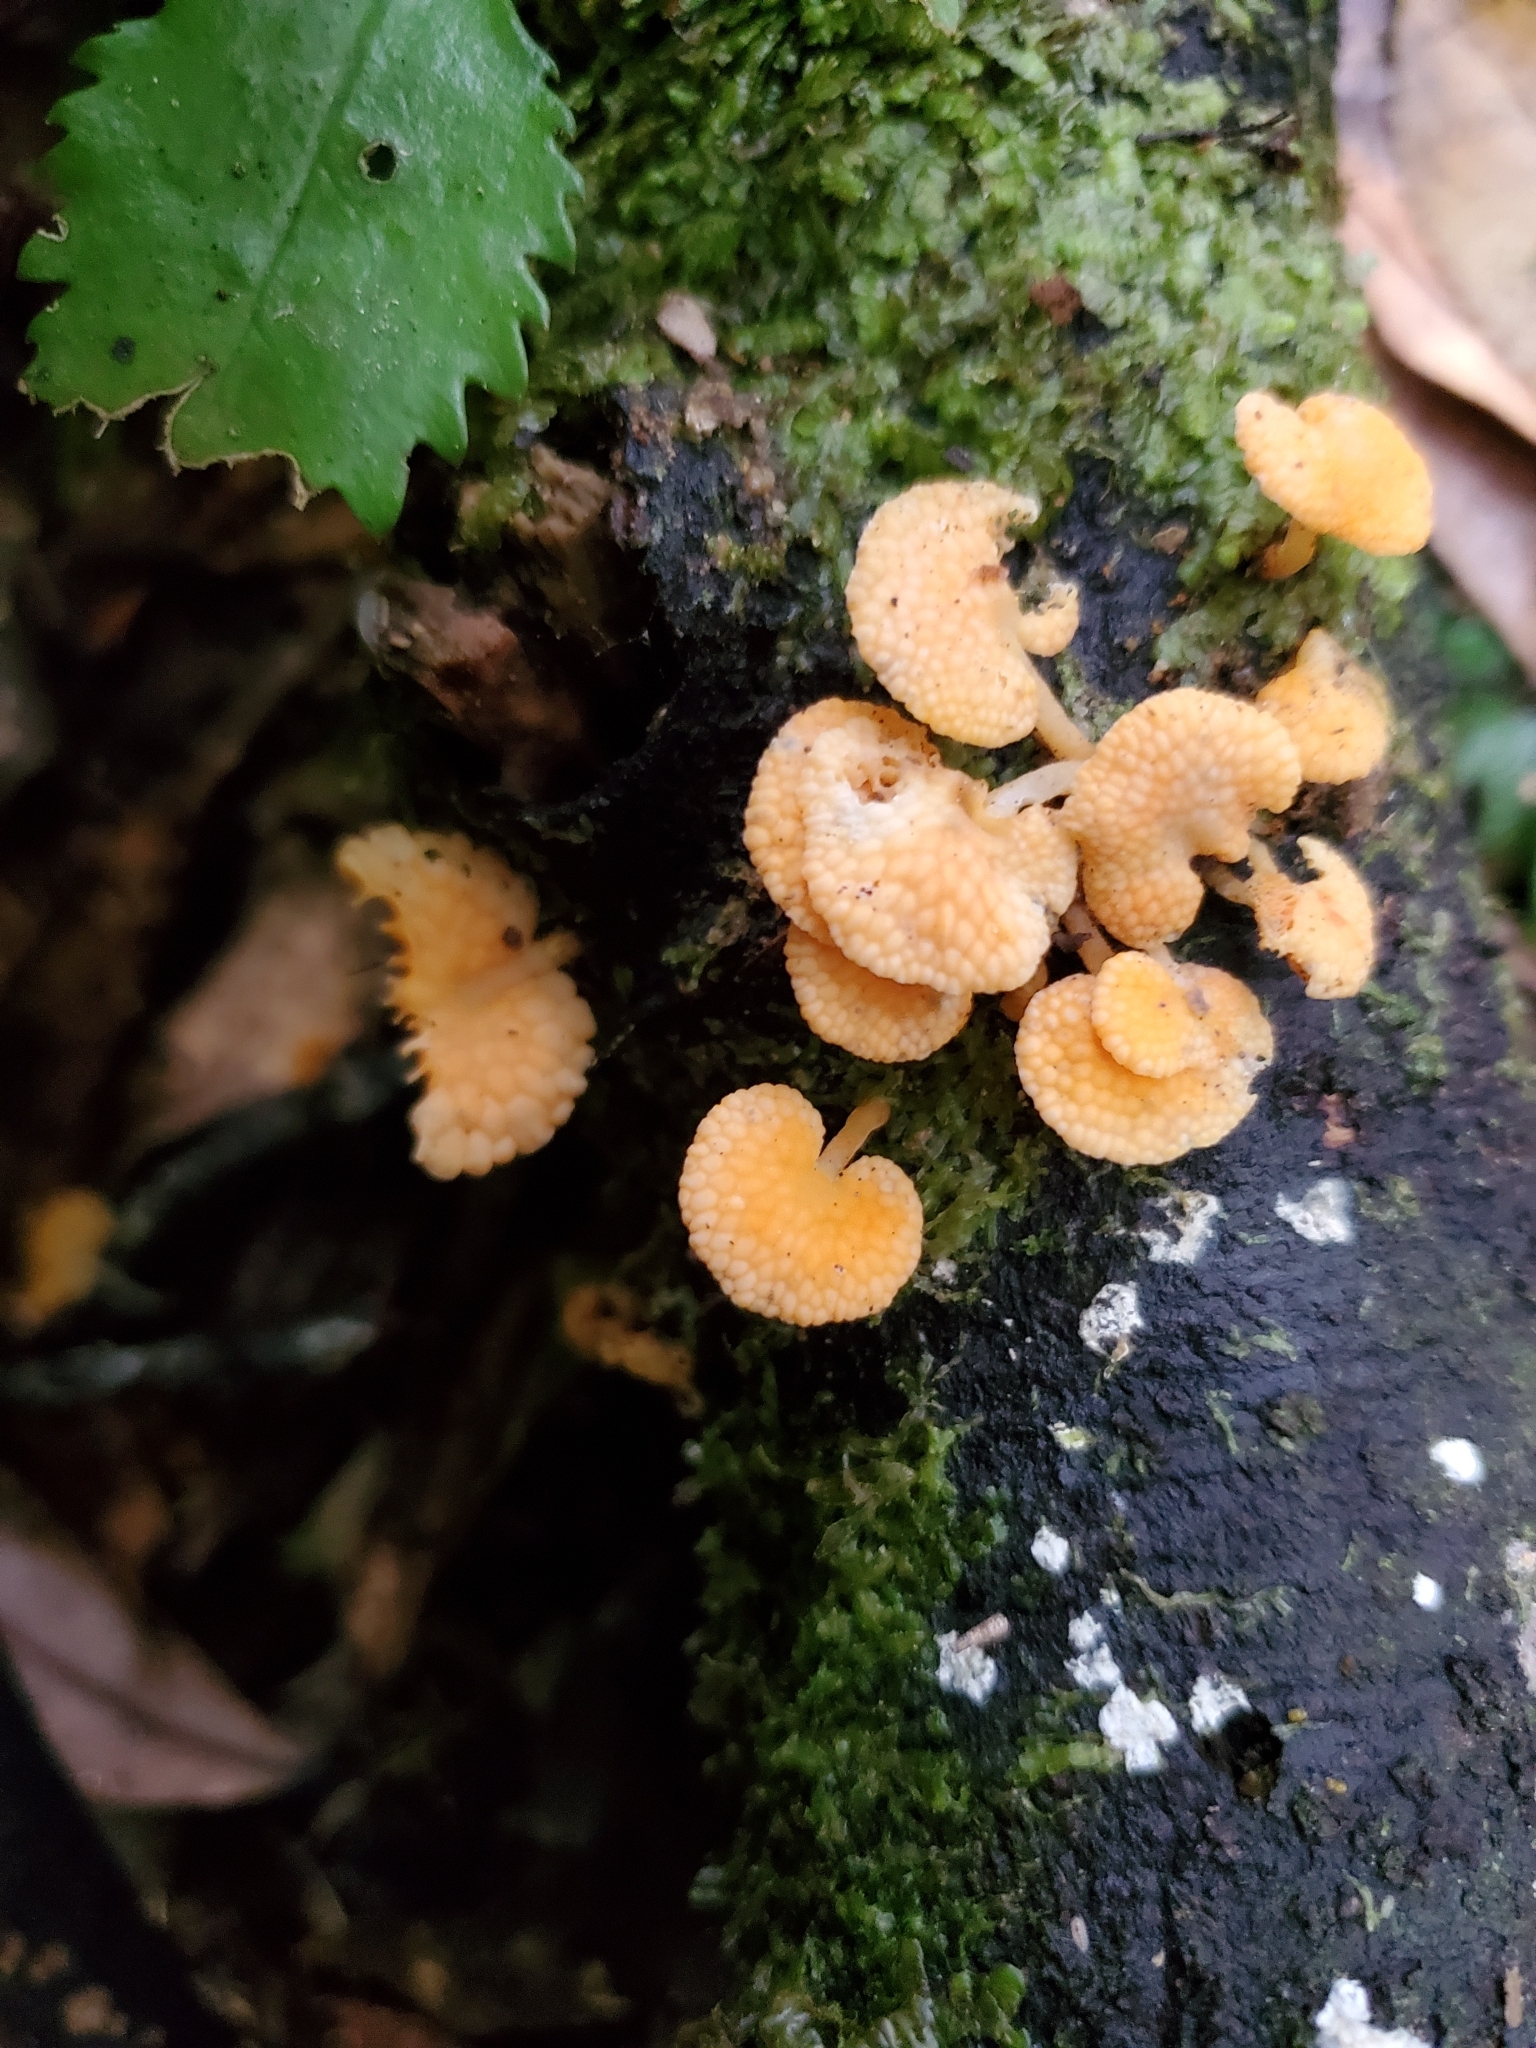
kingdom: Fungi
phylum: Basidiomycota
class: Agaricomycetes
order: Agaricales
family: Mycenaceae
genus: Favolaschia
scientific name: Favolaschia claudopus
